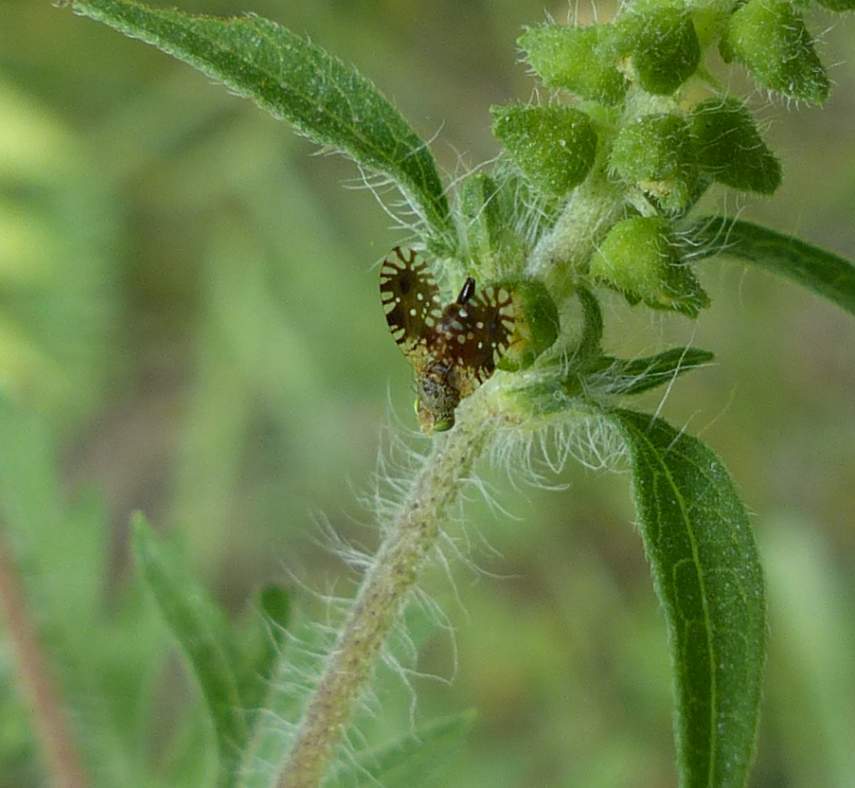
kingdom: Animalia
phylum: Arthropoda
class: Insecta
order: Diptera
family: Tephritidae
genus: Euaresta
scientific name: Euaresta bella
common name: Common ragweed fruit fly
